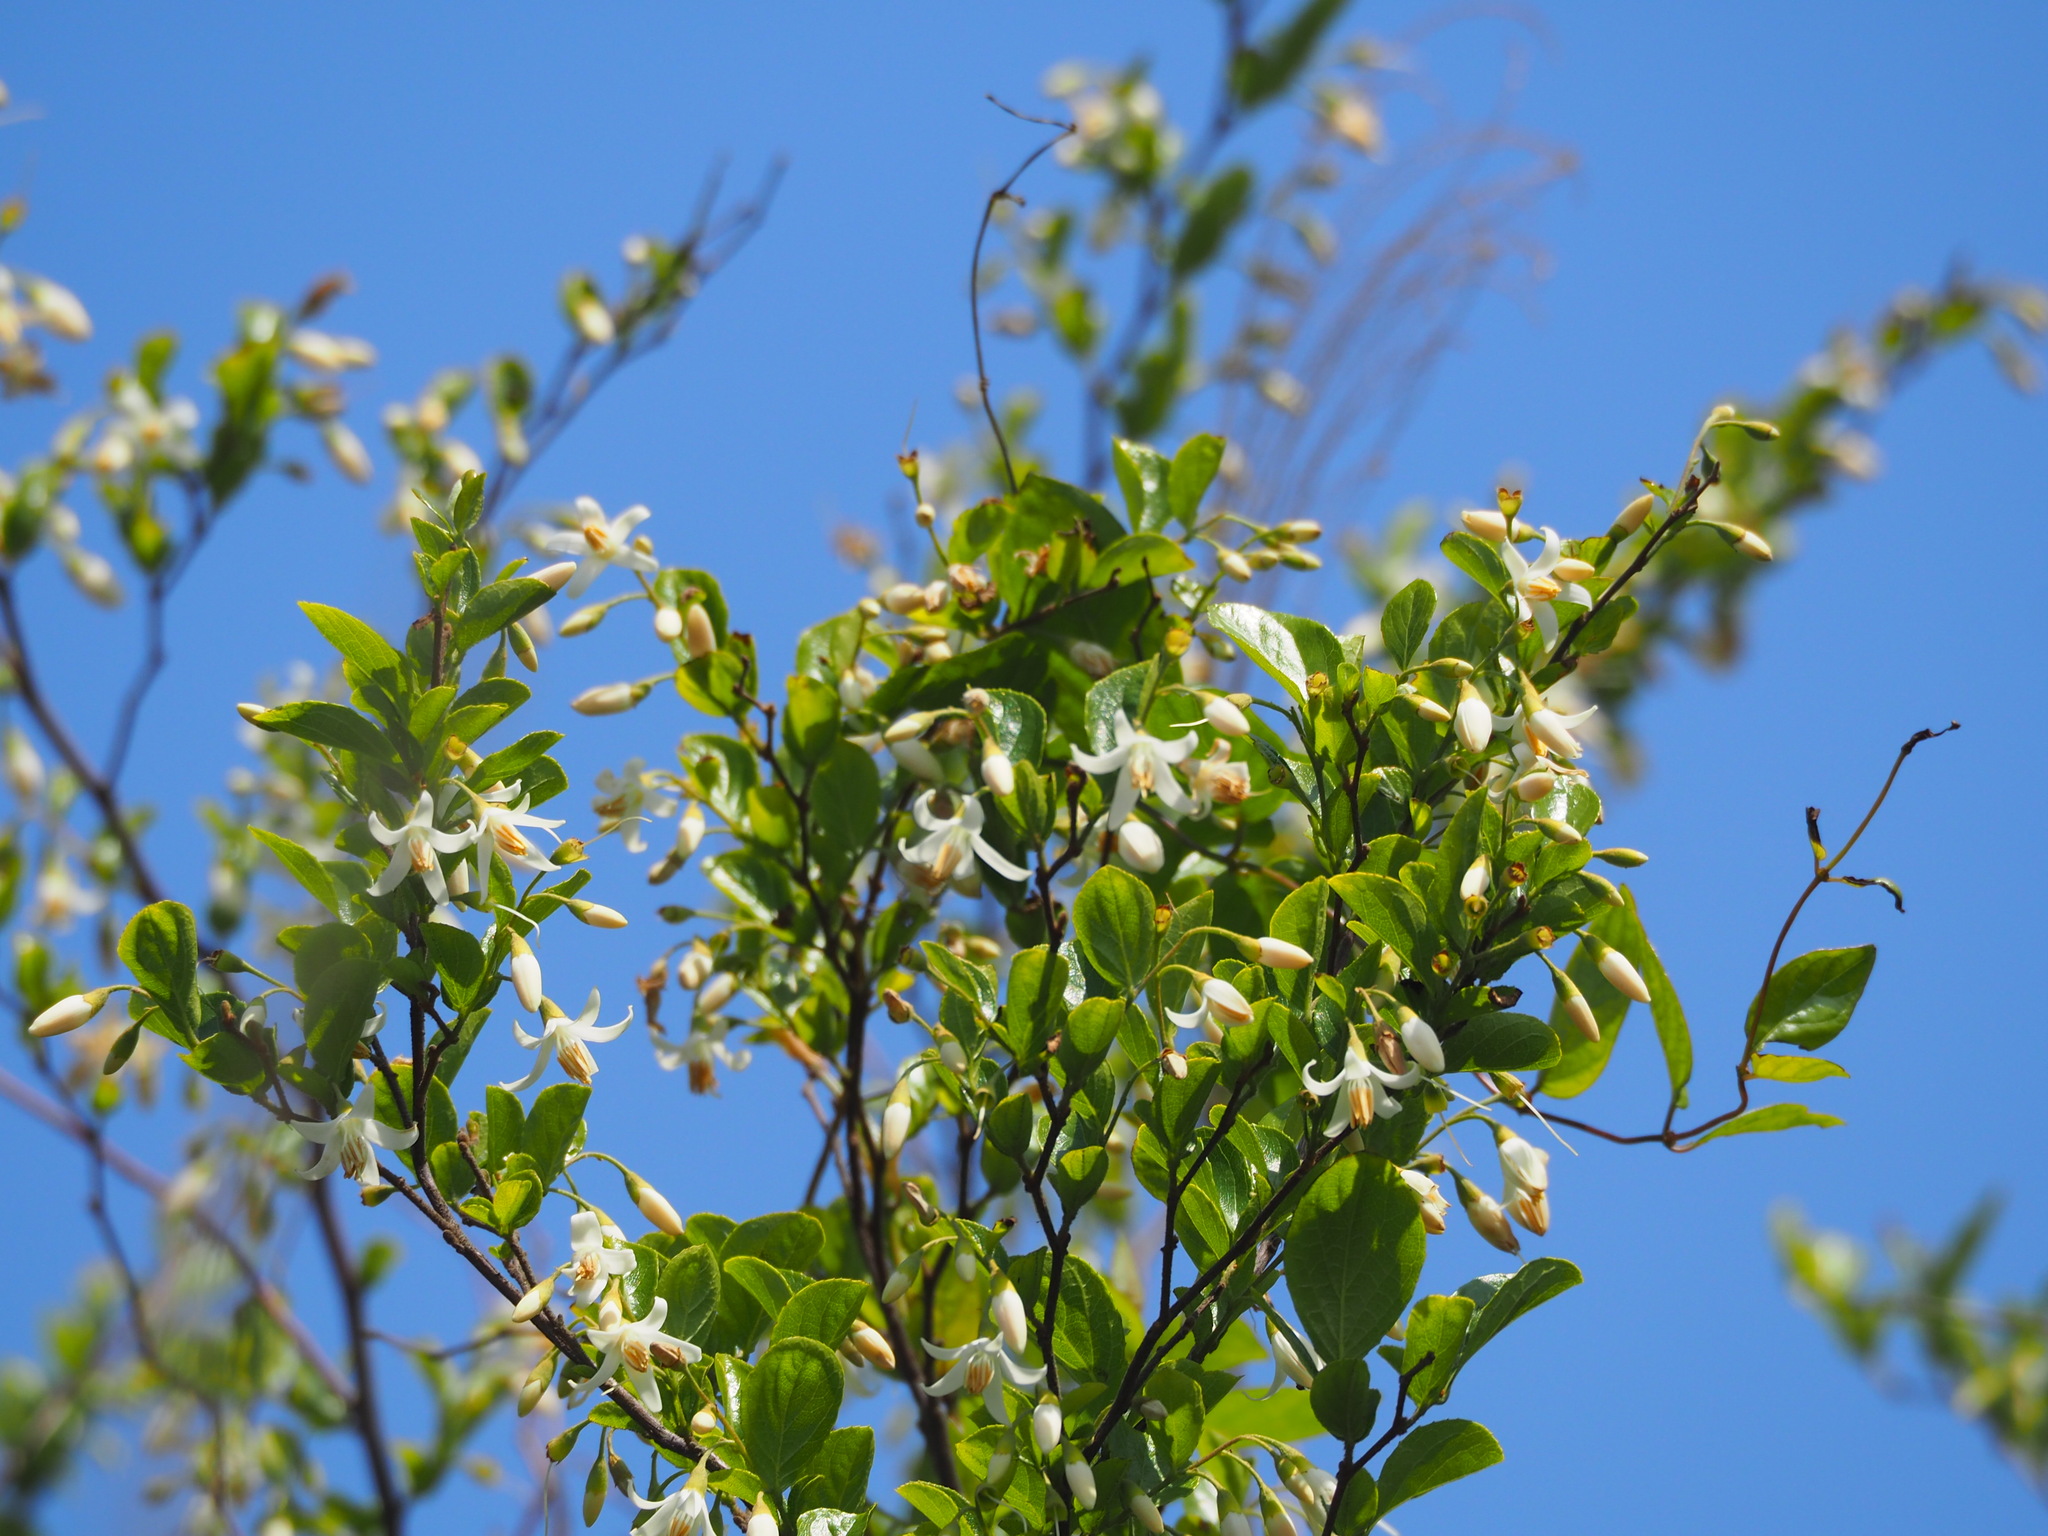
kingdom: Plantae
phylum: Tracheophyta
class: Magnoliopsida
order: Ericales
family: Styracaceae
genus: Styrax
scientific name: Styrax faberi
